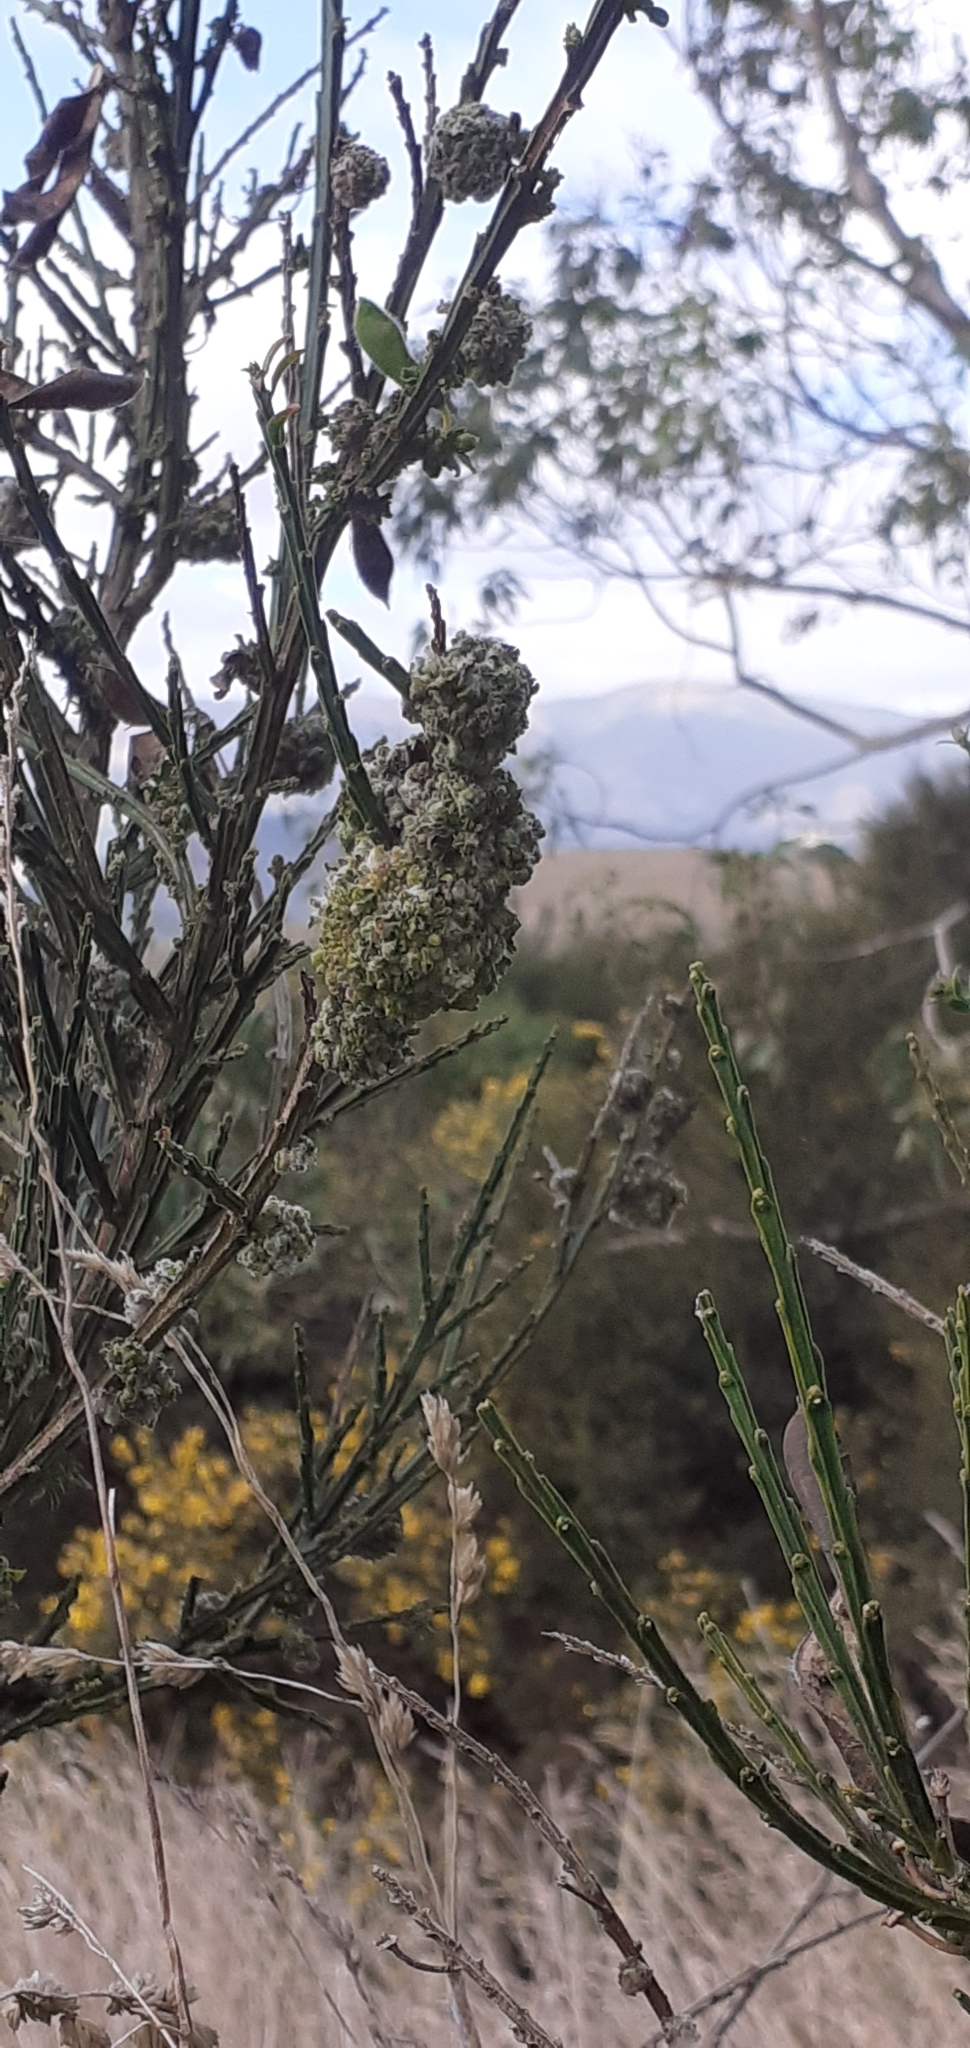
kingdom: Animalia
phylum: Arthropoda
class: Arachnida
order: Trombidiformes
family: Eriophyidae
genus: Aceria
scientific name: Aceria genistae
